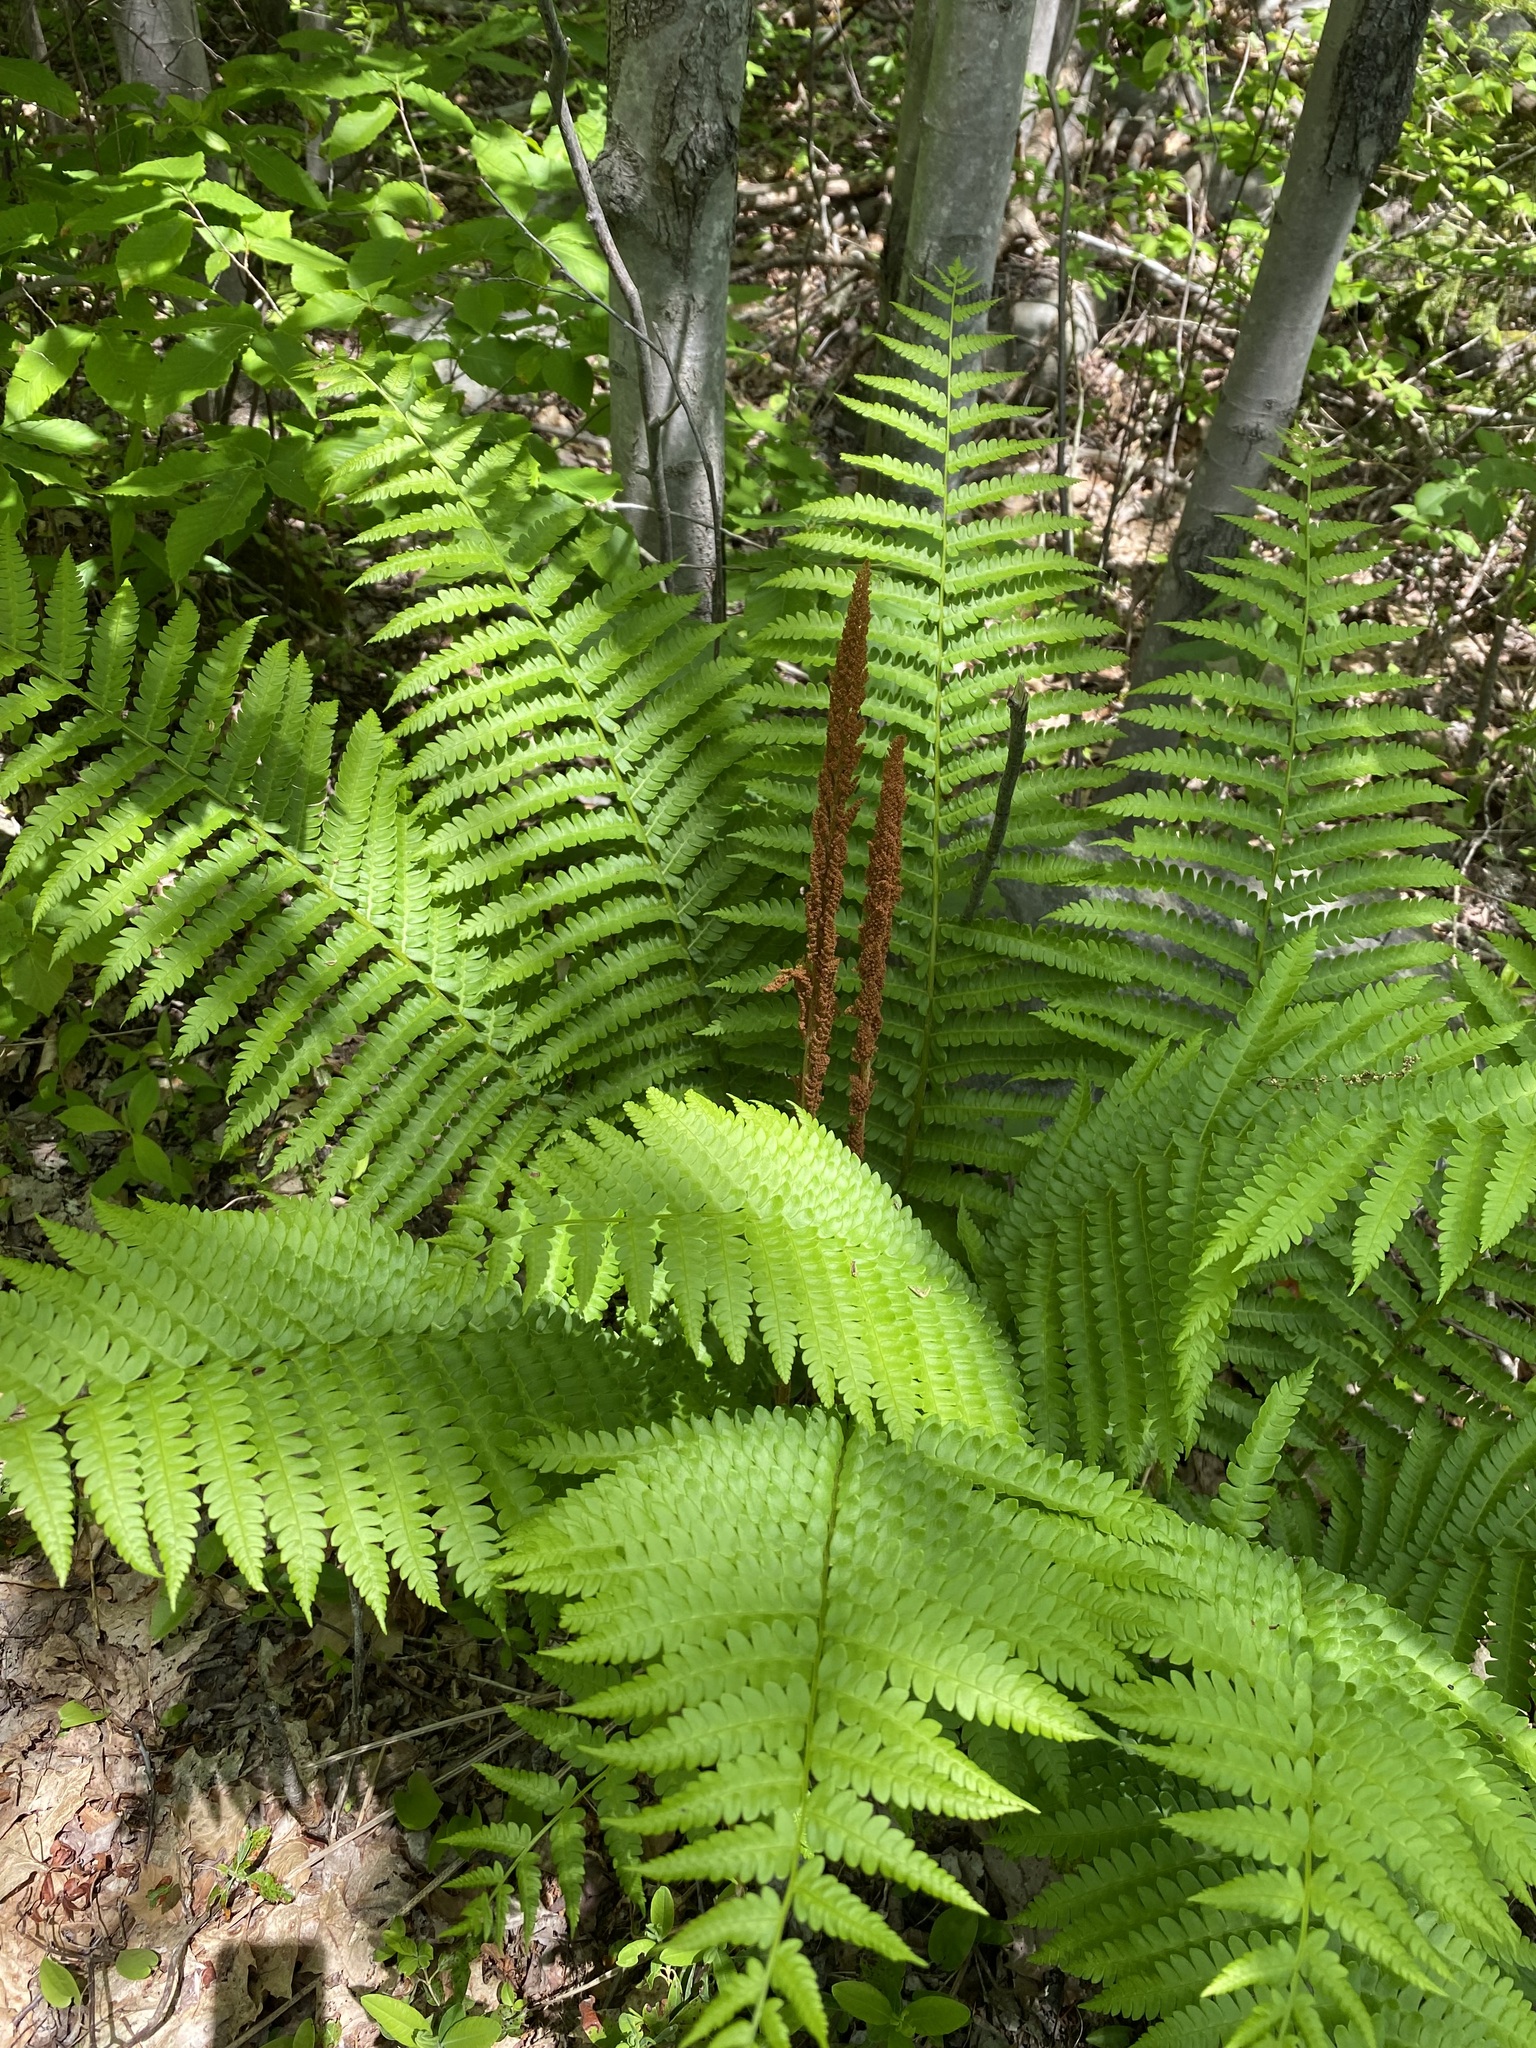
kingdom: Plantae
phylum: Tracheophyta
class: Polypodiopsida
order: Osmundales
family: Osmundaceae
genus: Osmundastrum
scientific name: Osmundastrum cinnamomeum
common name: Cinnamon fern
